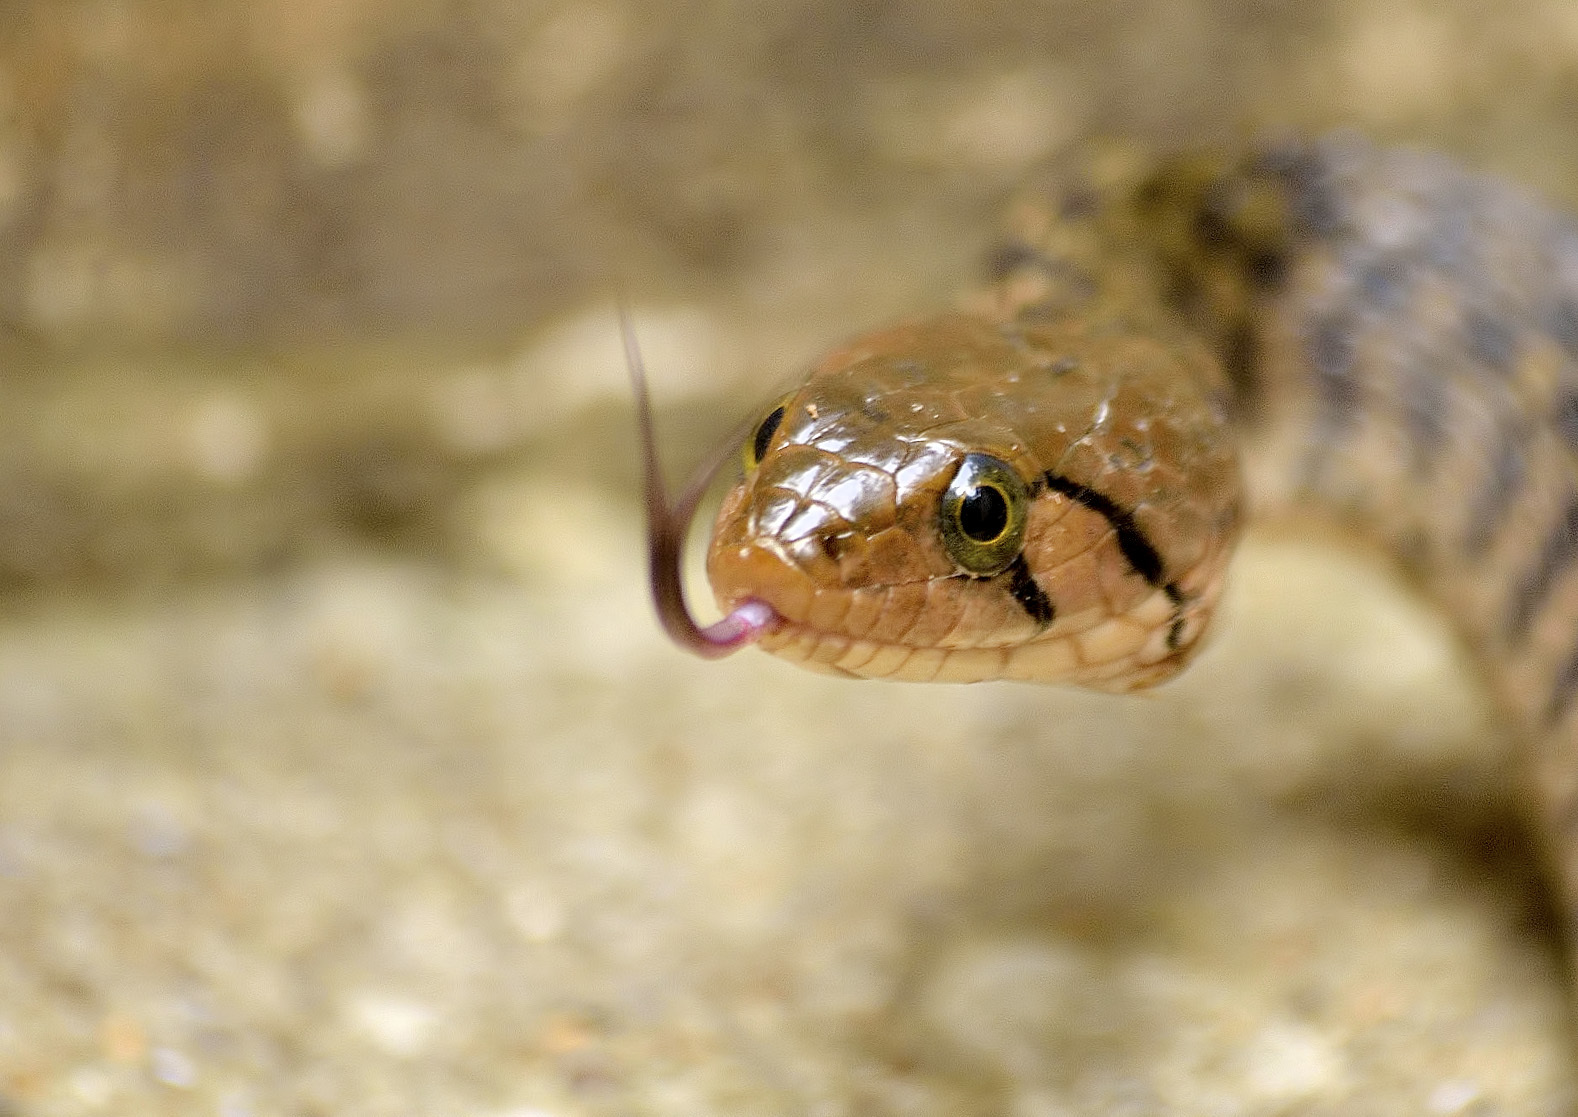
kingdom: Animalia
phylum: Chordata
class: Squamata
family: Colubridae
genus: Fowlea
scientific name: Fowlea piscator
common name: Asiatic water snake
